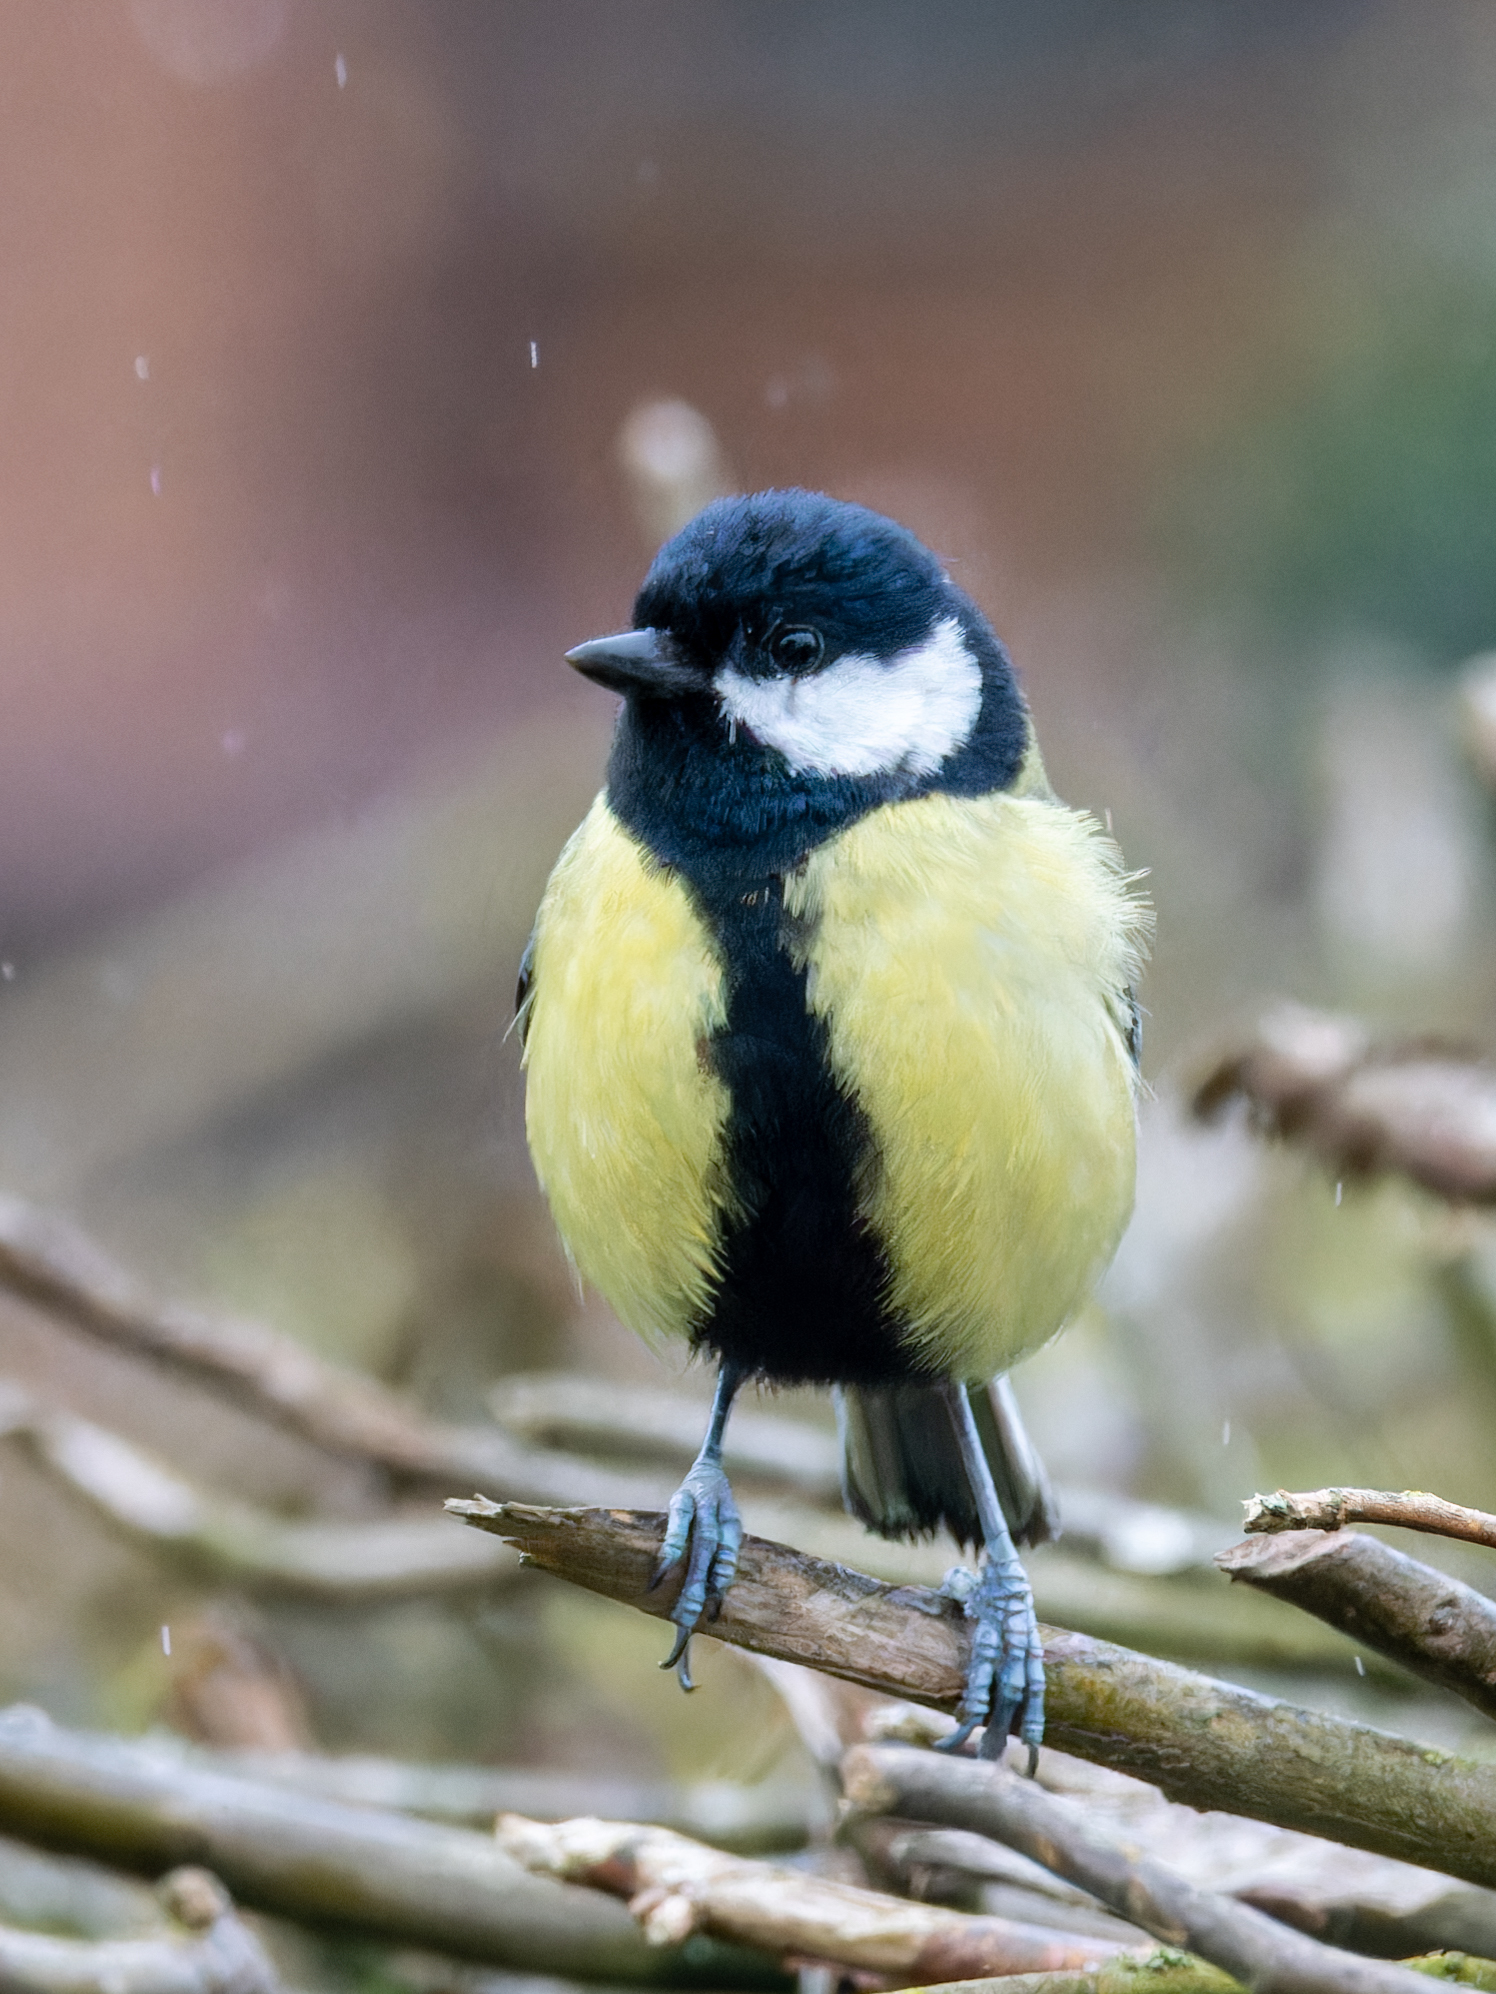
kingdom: Animalia
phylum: Chordata
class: Aves
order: Passeriformes
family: Paridae
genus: Parus
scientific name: Parus major
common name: Great tit
